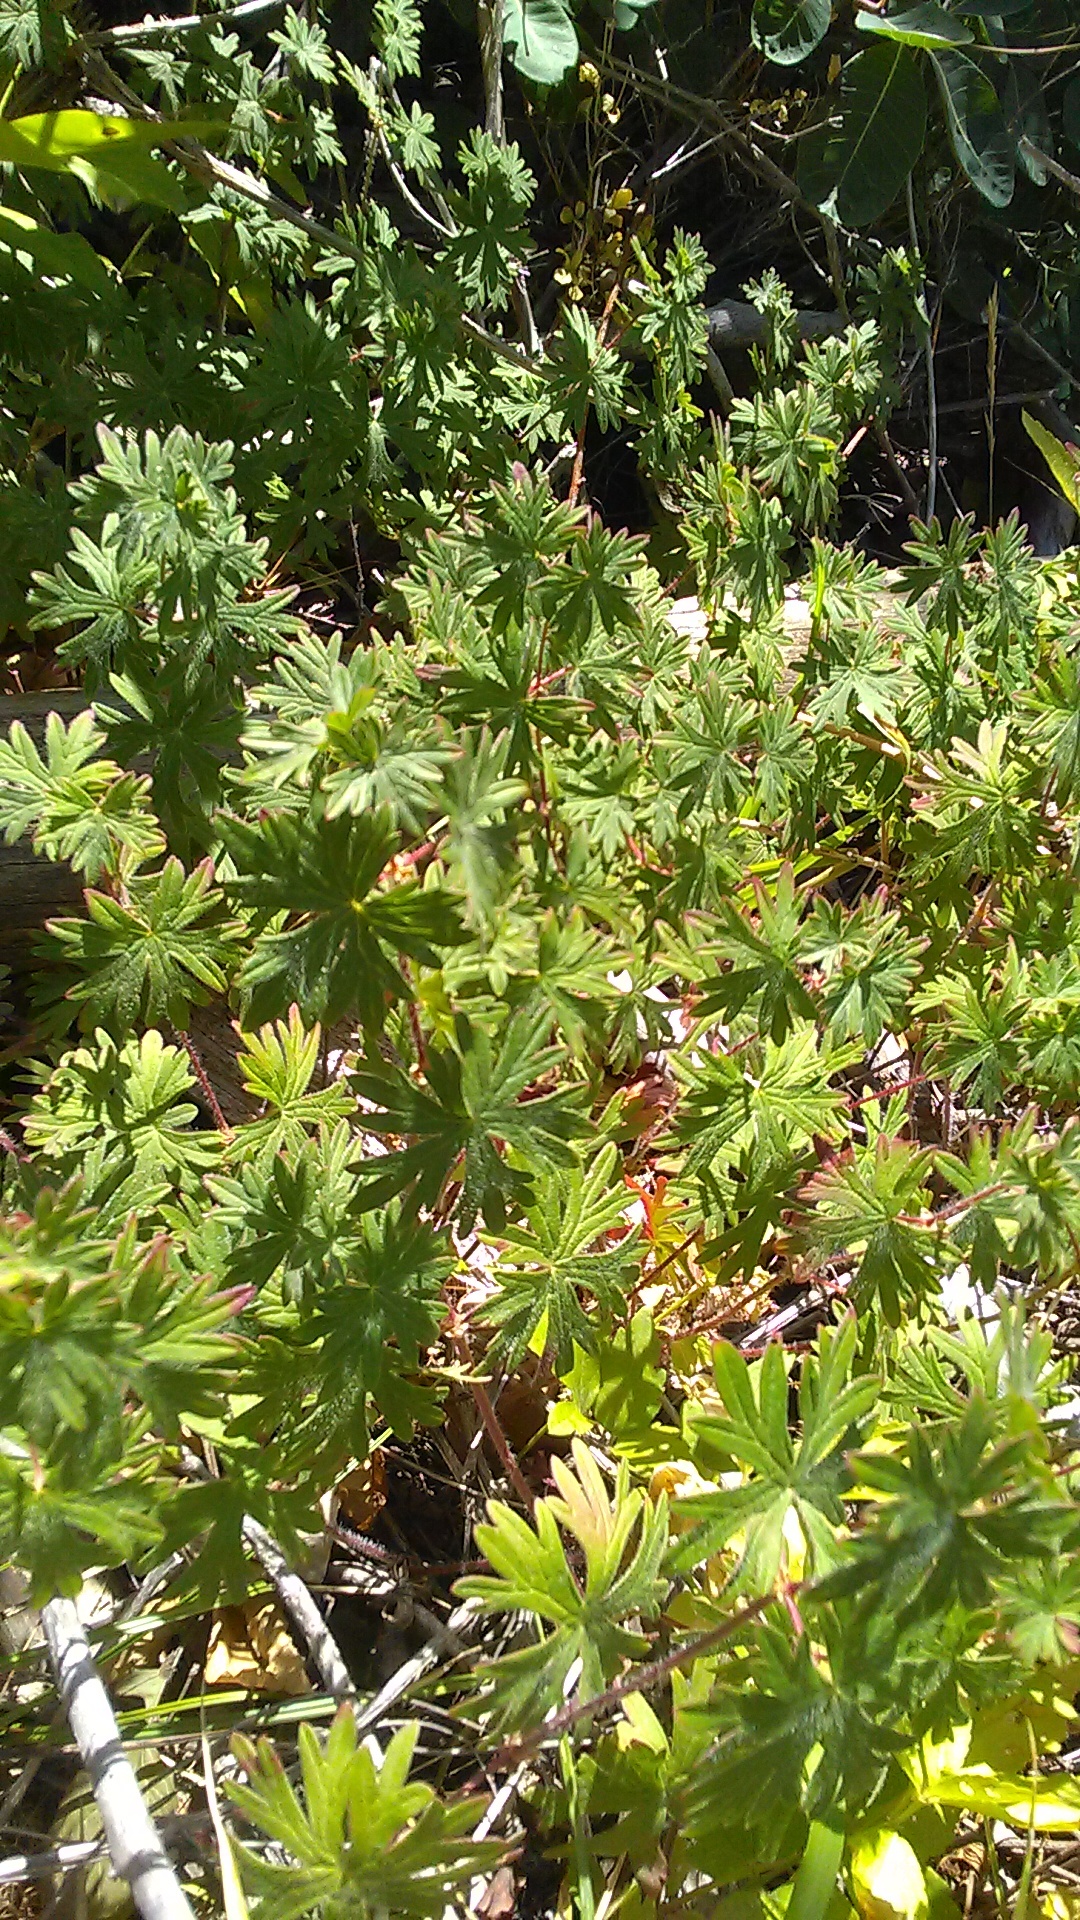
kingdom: Plantae
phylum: Tracheophyta
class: Magnoliopsida
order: Geraniales
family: Geraniaceae
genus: Geranium
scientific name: Geranium sanguineum
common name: Bloody crane's-bill
